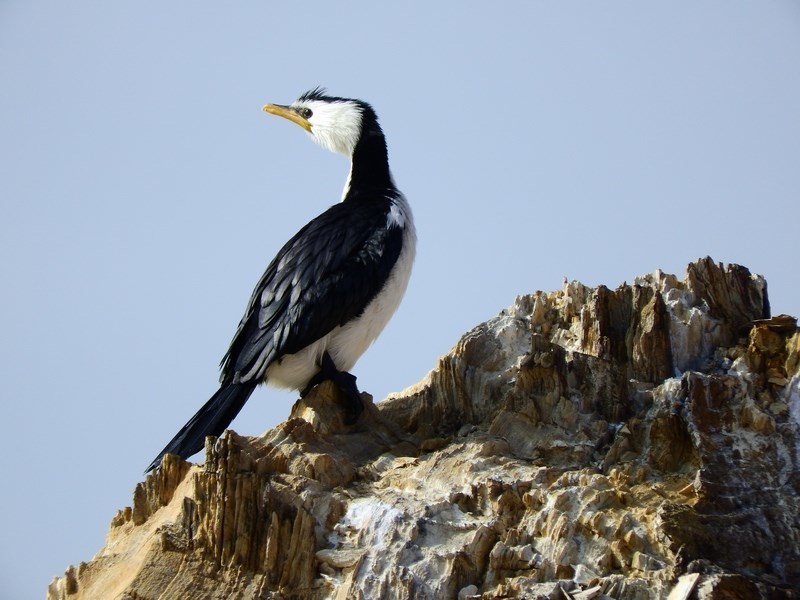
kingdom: Animalia
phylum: Chordata
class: Aves
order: Suliformes
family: Phalacrocoracidae
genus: Microcarbo
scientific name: Microcarbo melanoleucos
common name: Little pied cormorant
